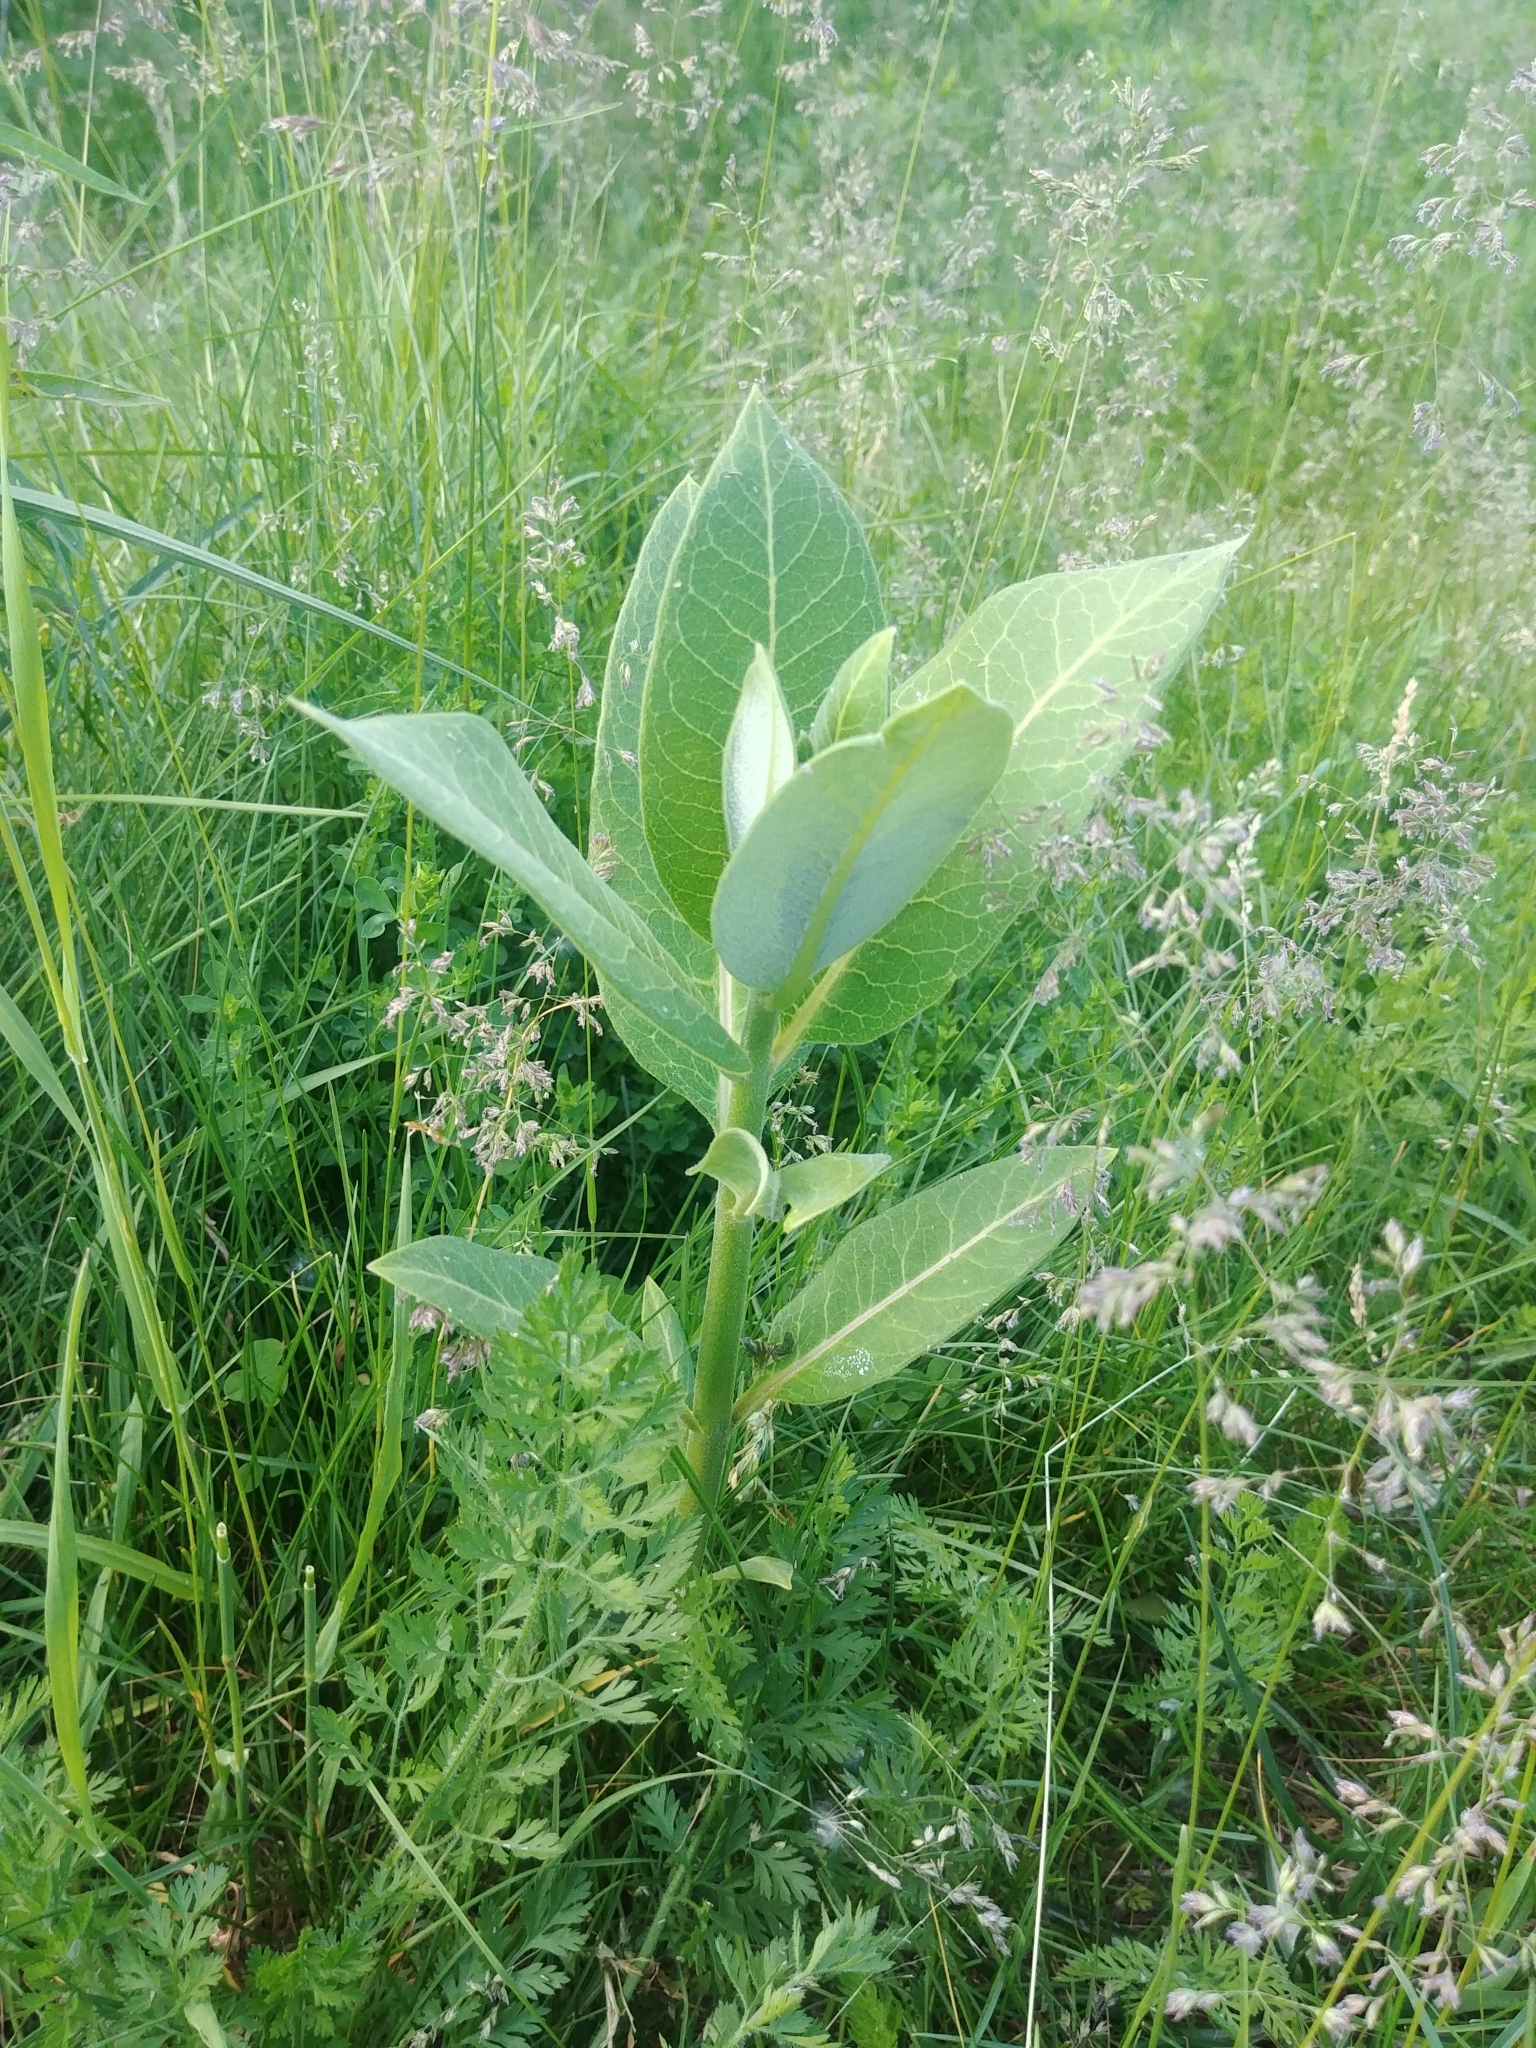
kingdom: Plantae
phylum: Tracheophyta
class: Magnoliopsida
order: Gentianales
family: Apocynaceae
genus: Asclepias
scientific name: Asclepias syriaca
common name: Common milkweed
